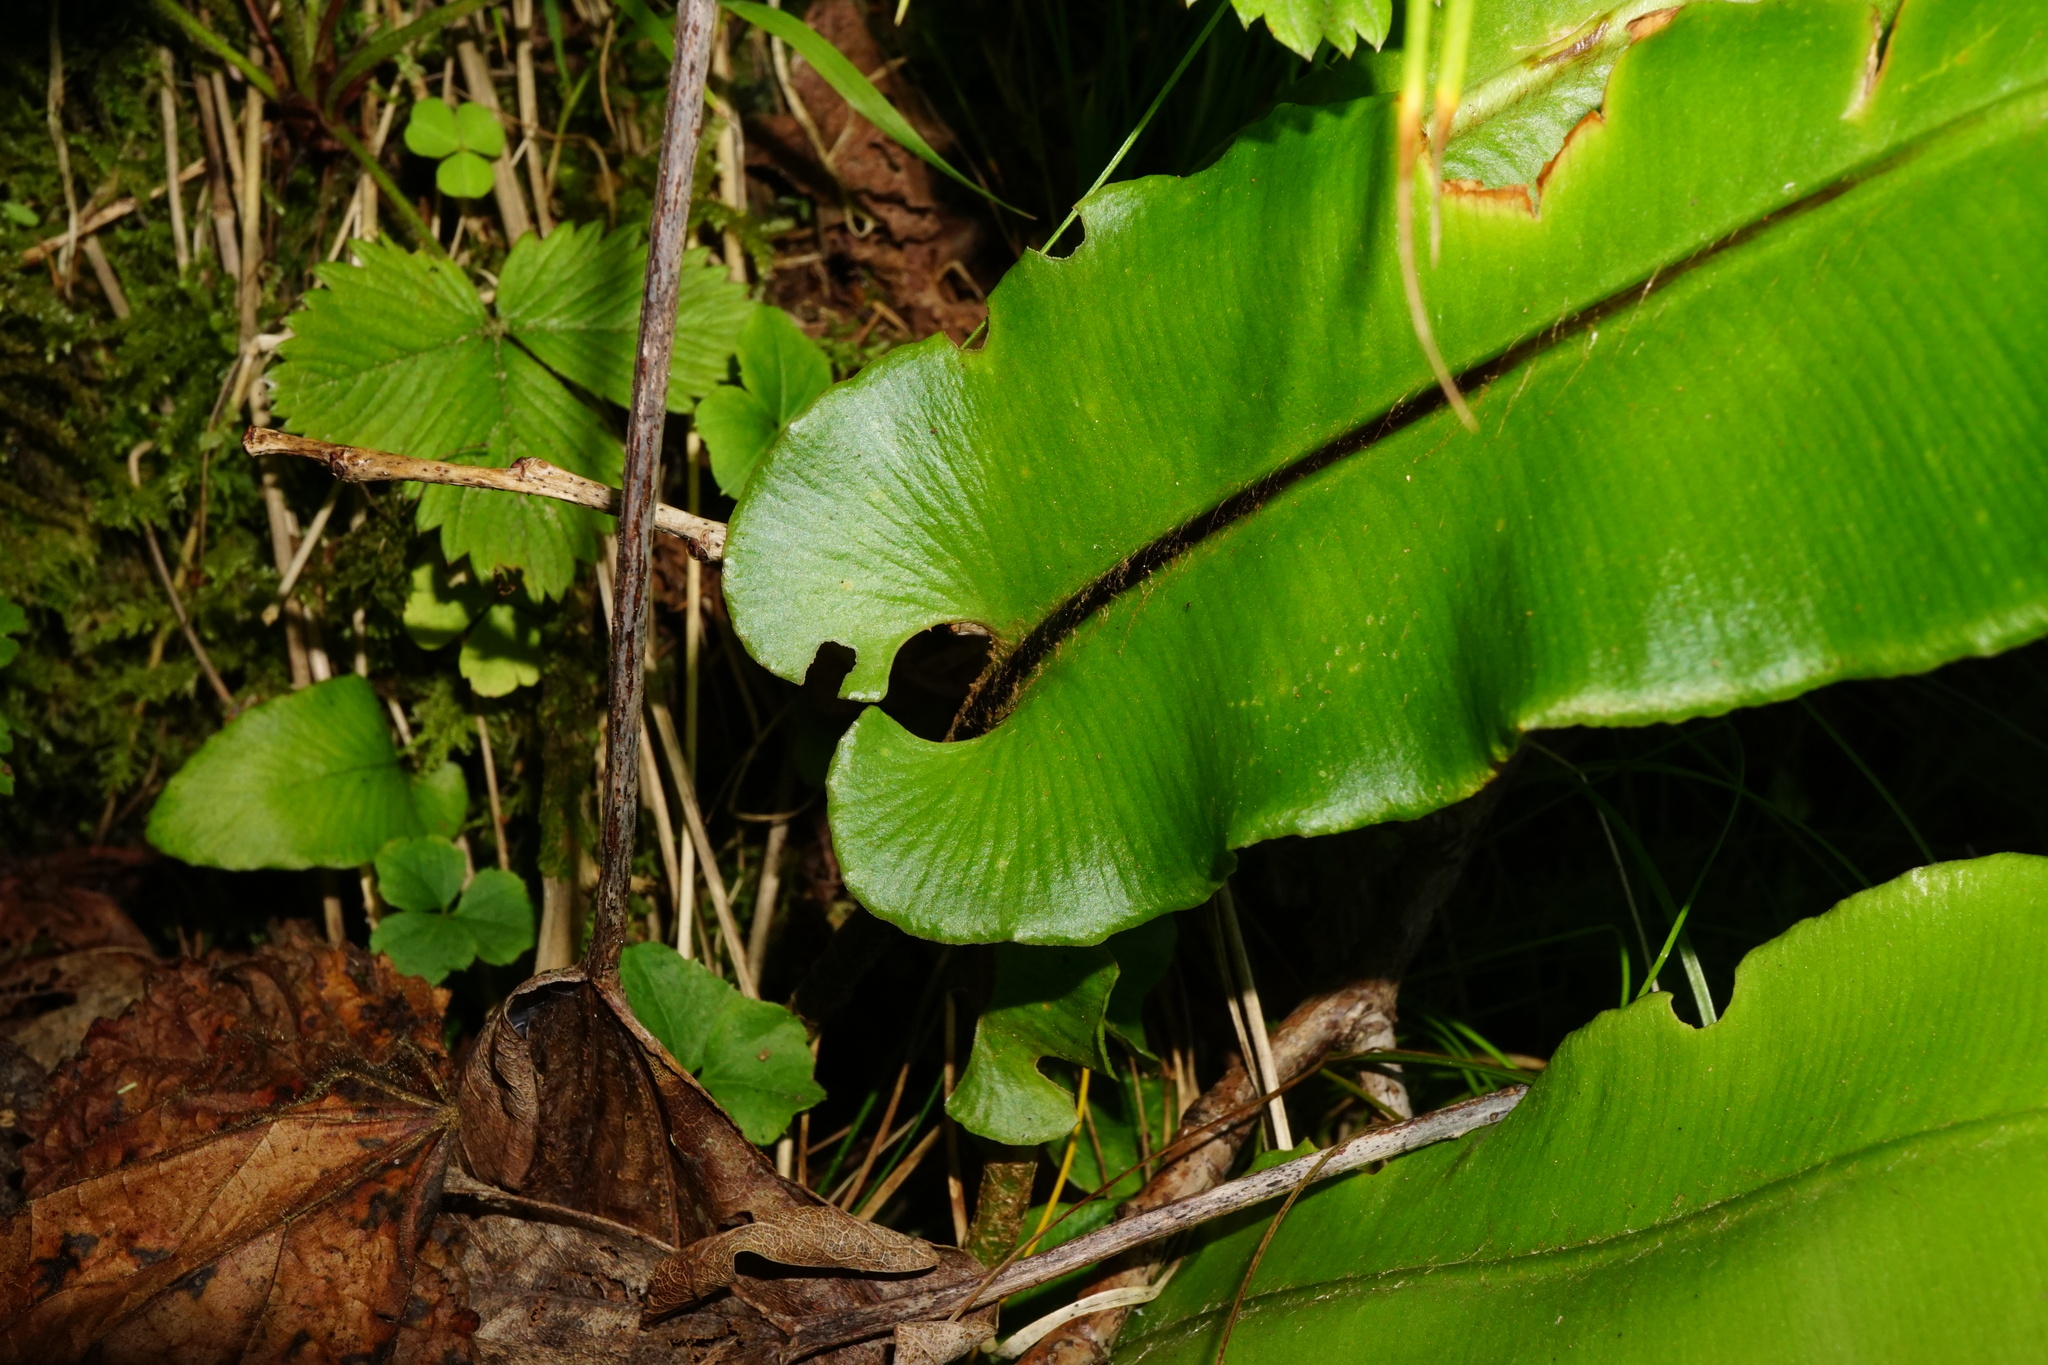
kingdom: Plantae
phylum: Tracheophyta
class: Polypodiopsida
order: Polypodiales
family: Aspleniaceae
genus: Asplenium
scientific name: Asplenium scolopendrium
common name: Hart's-tongue fern
